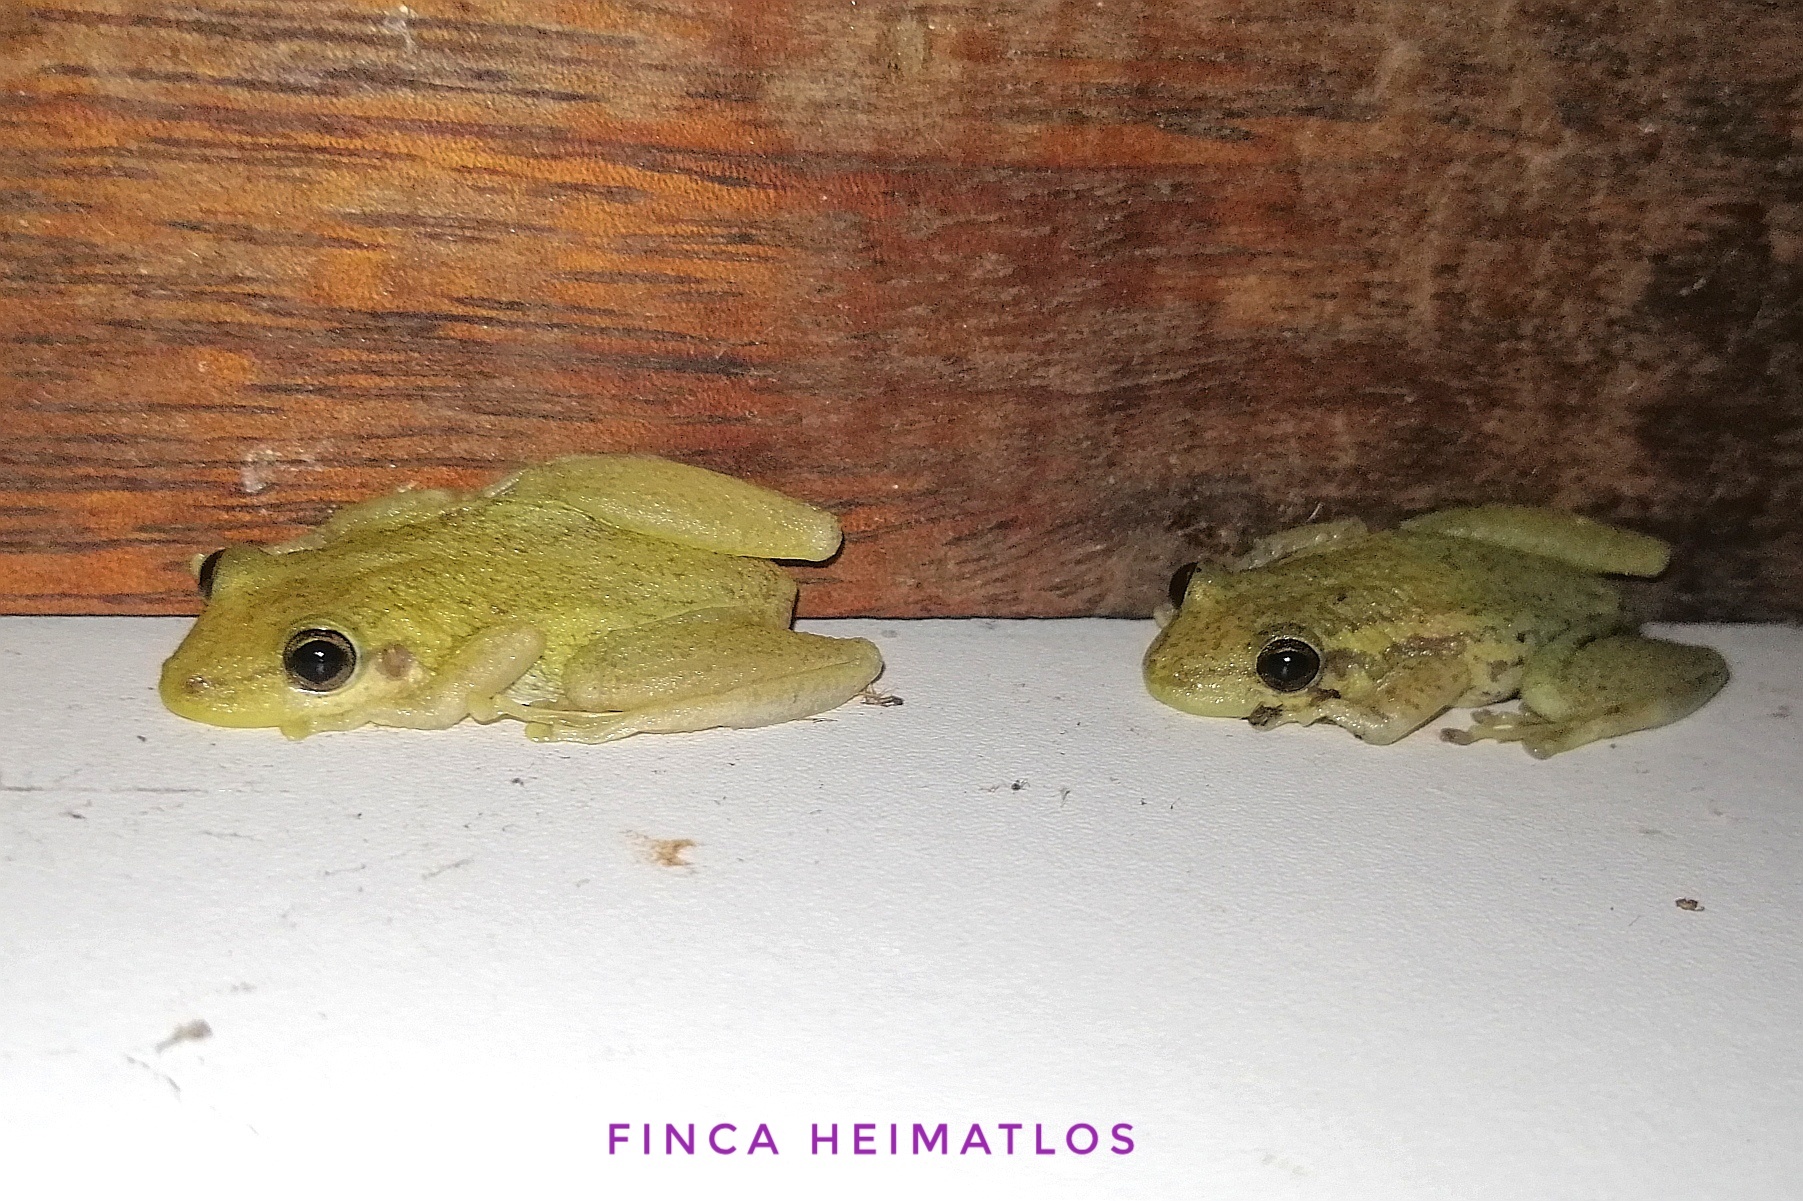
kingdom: Animalia
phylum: Chordata
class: Amphibia
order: Anura
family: Hylidae
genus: Scinax
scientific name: Scinax ruber
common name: Red snouted treefrog
